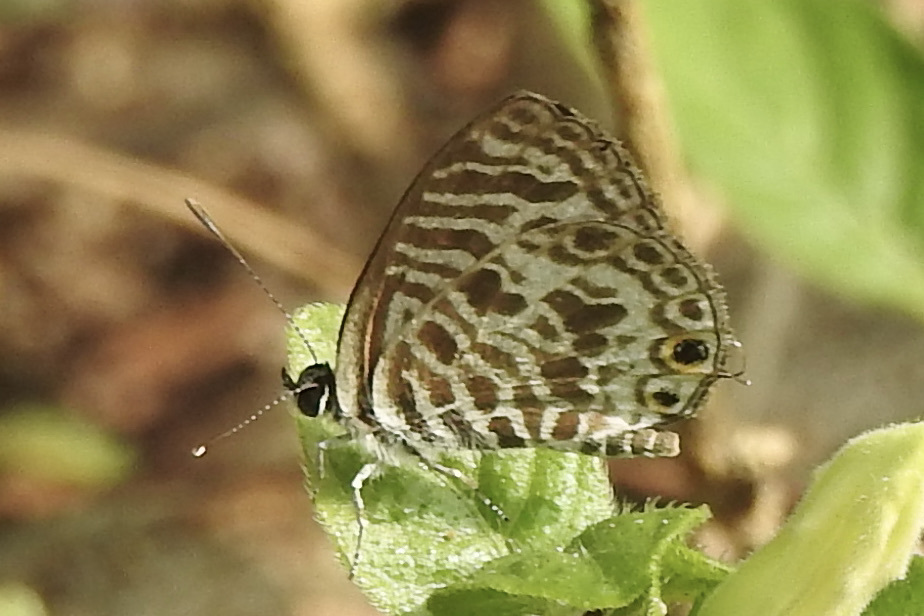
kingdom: Animalia
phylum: Arthropoda
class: Insecta
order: Lepidoptera
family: Lycaenidae
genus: Leptotes
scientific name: Leptotes plinius
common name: Zebra blue
